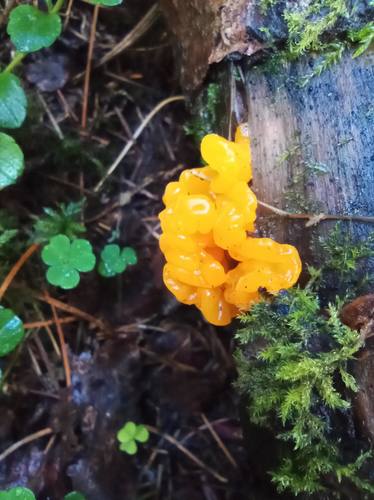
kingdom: Fungi
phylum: Basidiomycota
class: Dacrymycetes
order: Dacrymycetales
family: Dacrymycetaceae
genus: Dacrymyces
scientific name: Dacrymyces chrysospermus
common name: Orange jelly spot
